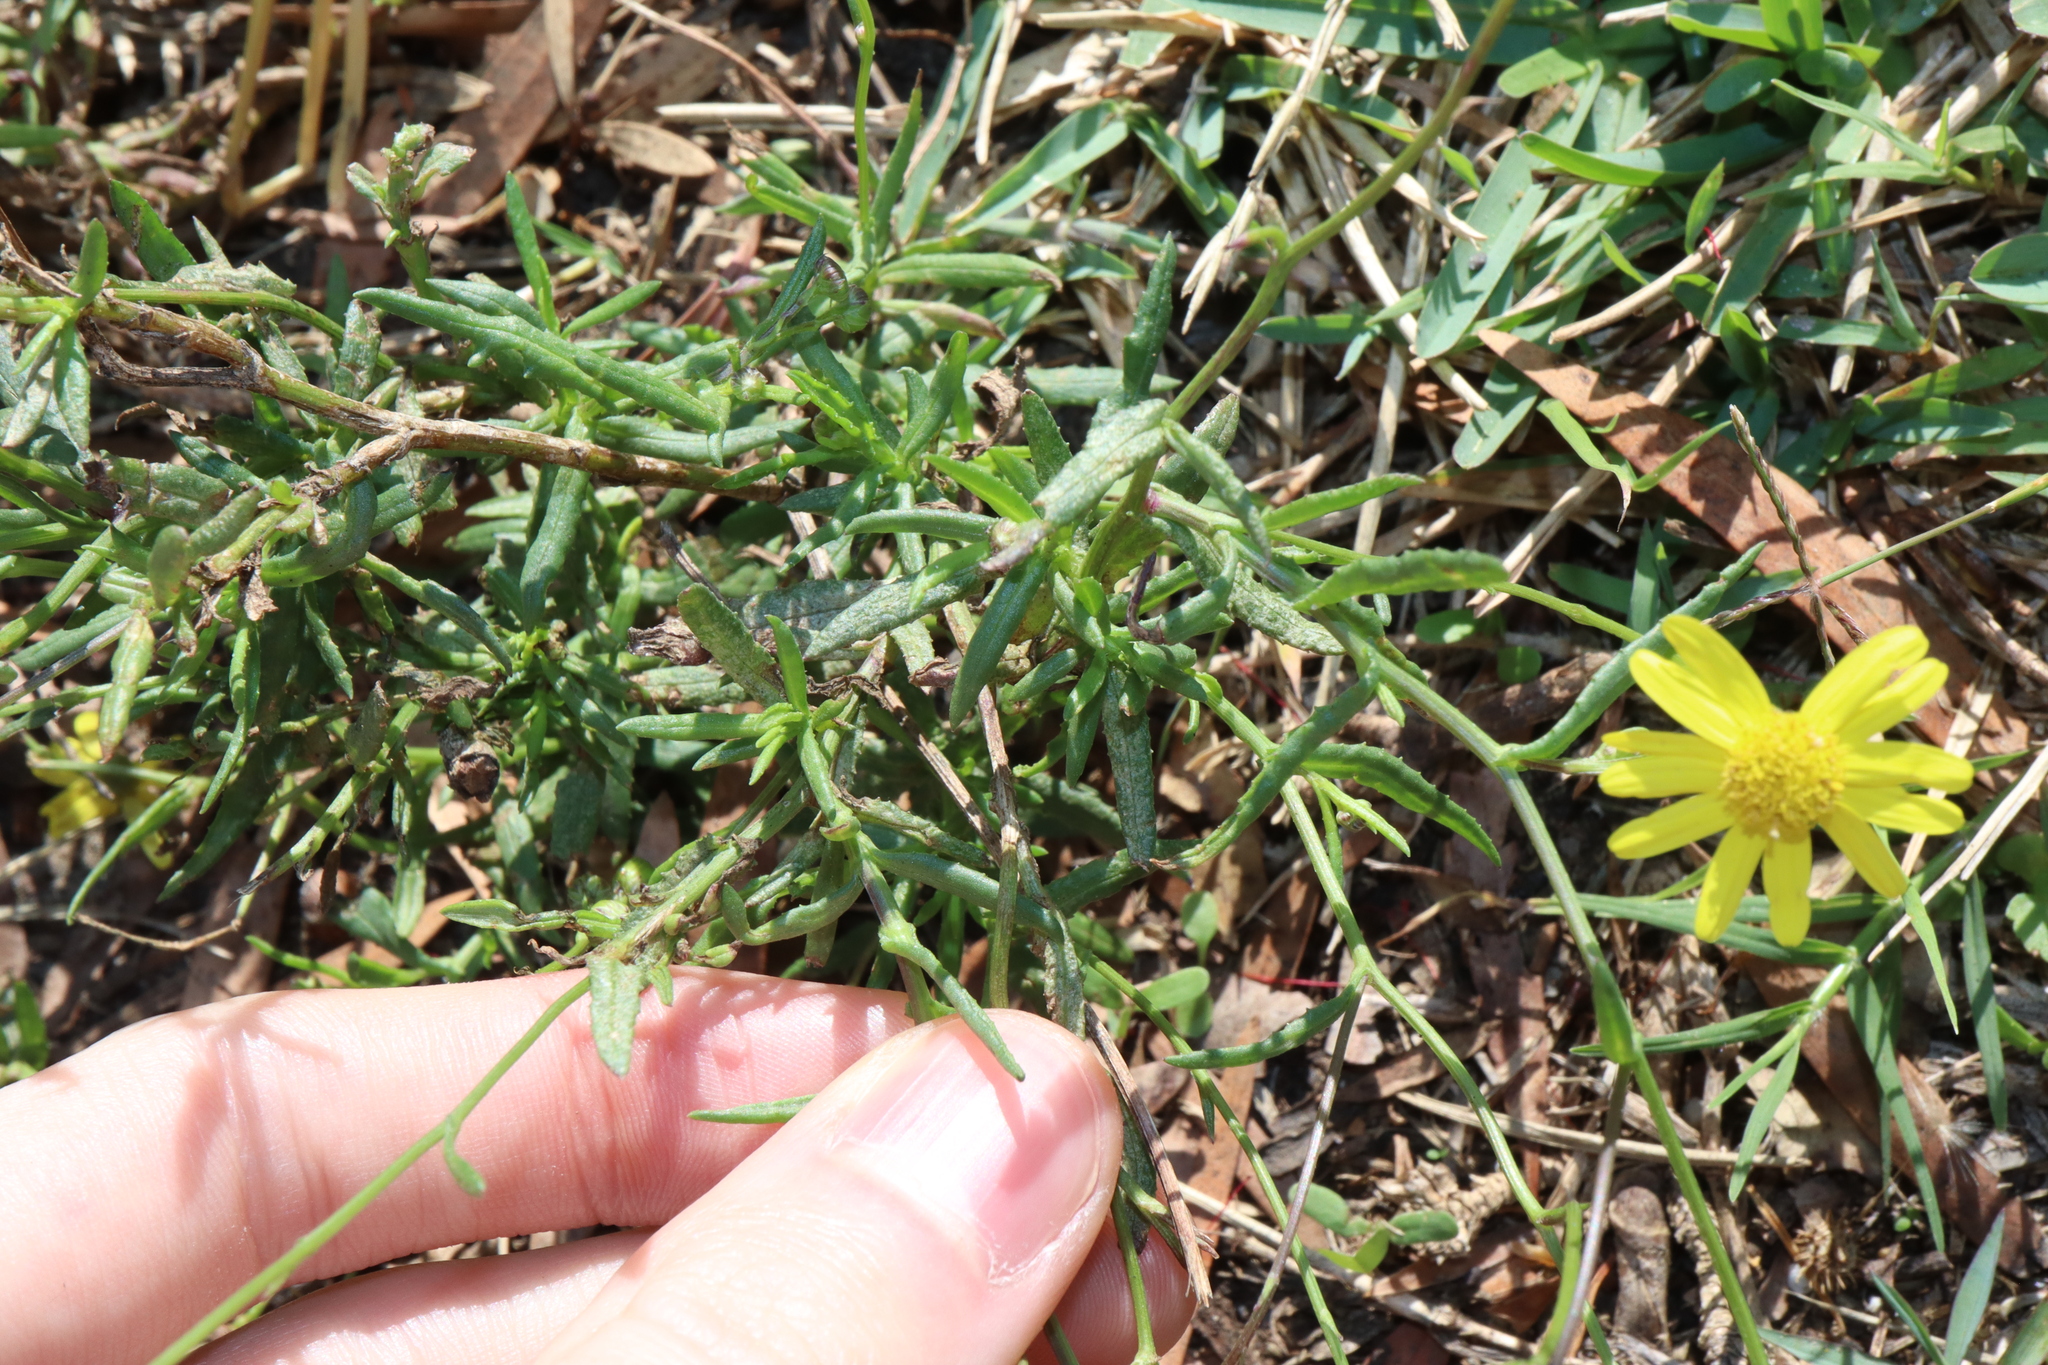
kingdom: Plantae
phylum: Tracheophyta
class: Magnoliopsida
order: Asterales
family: Asteraceae
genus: Senecio
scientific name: Senecio madagascariensis
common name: Madagascar ragwort
